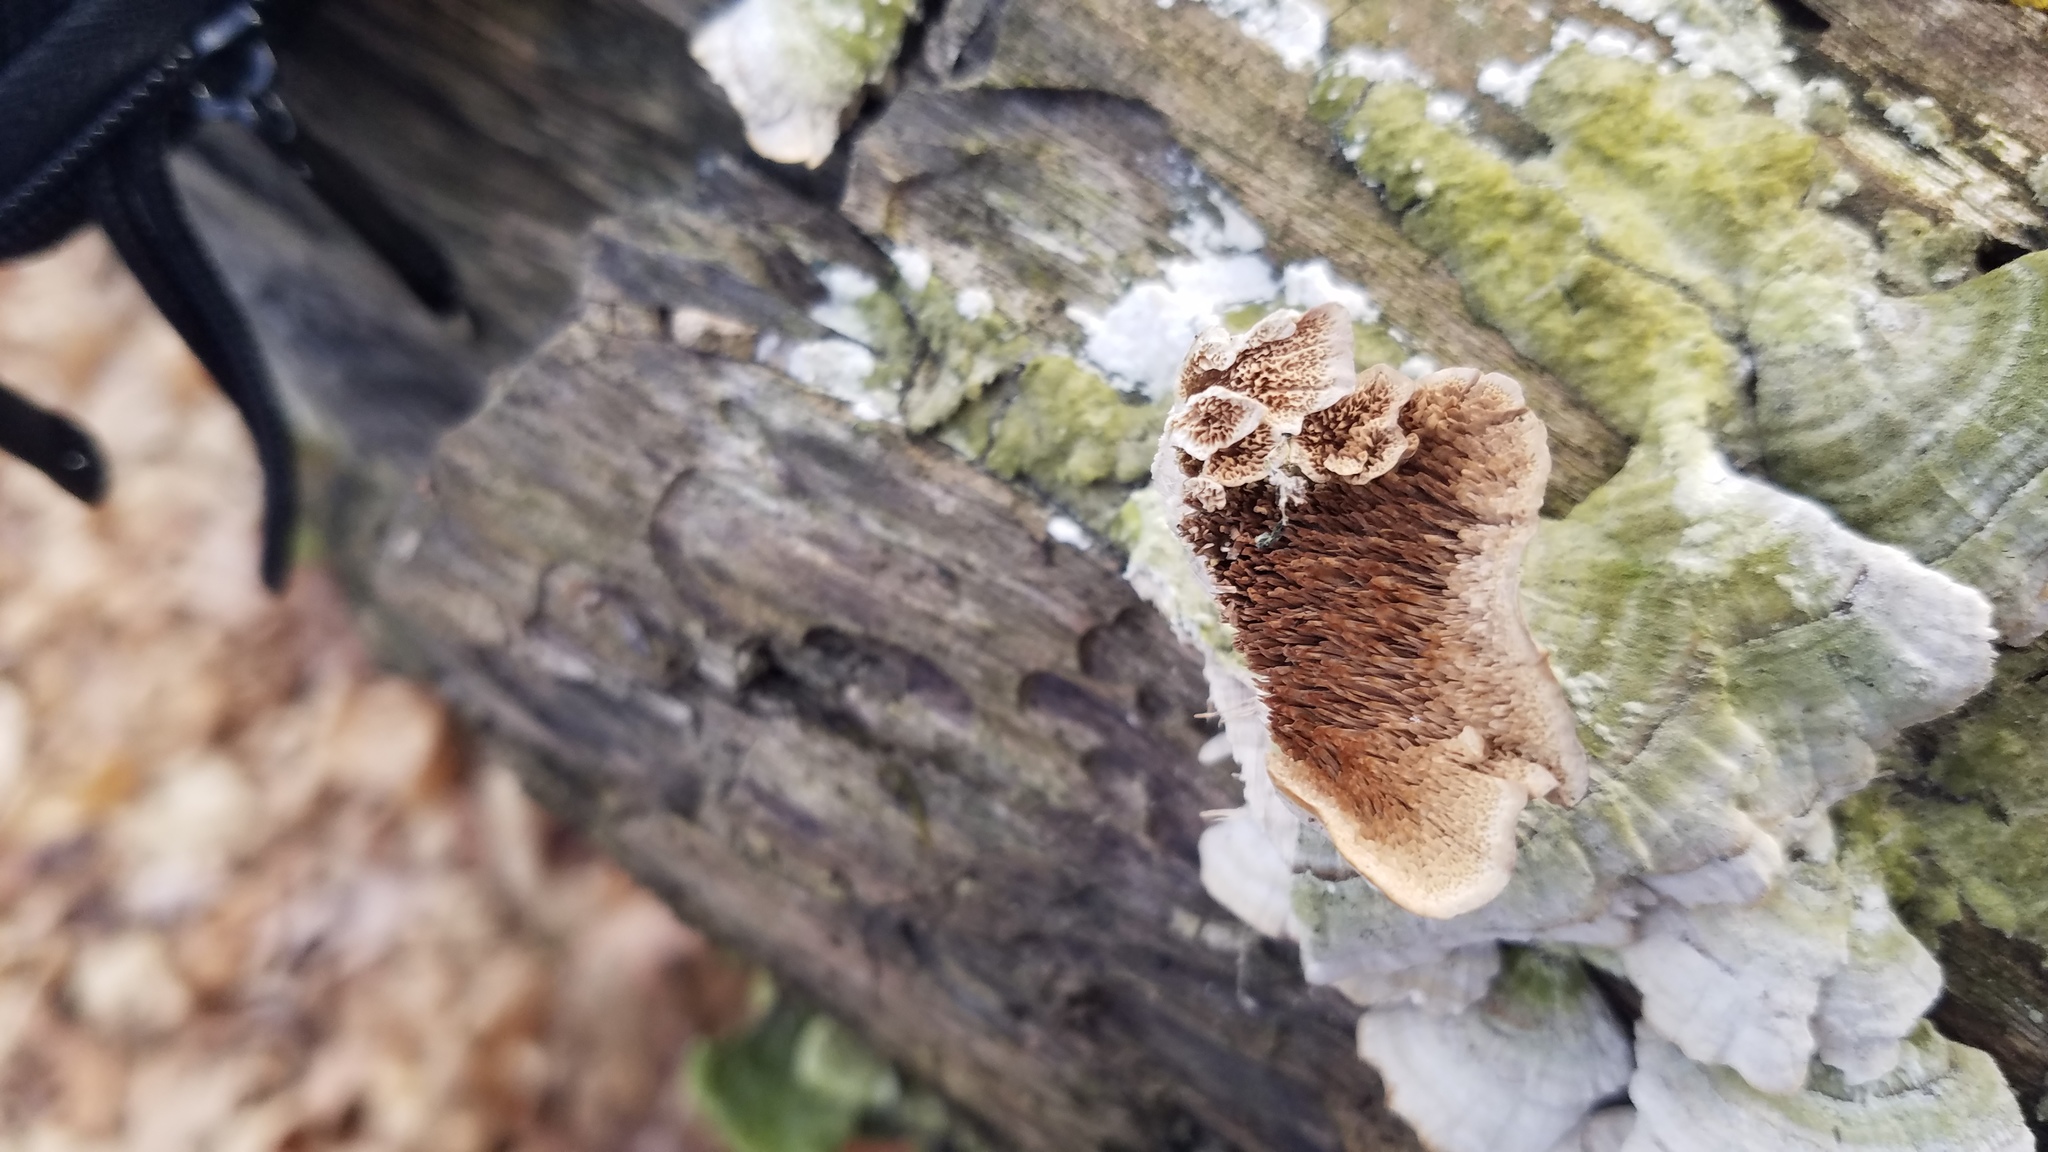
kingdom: Fungi
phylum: Basidiomycota
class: Agaricomycetes
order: Polyporales
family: Cerrenaceae
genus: Cerrena
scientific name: Cerrena unicolor
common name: Mossy maze polypore
